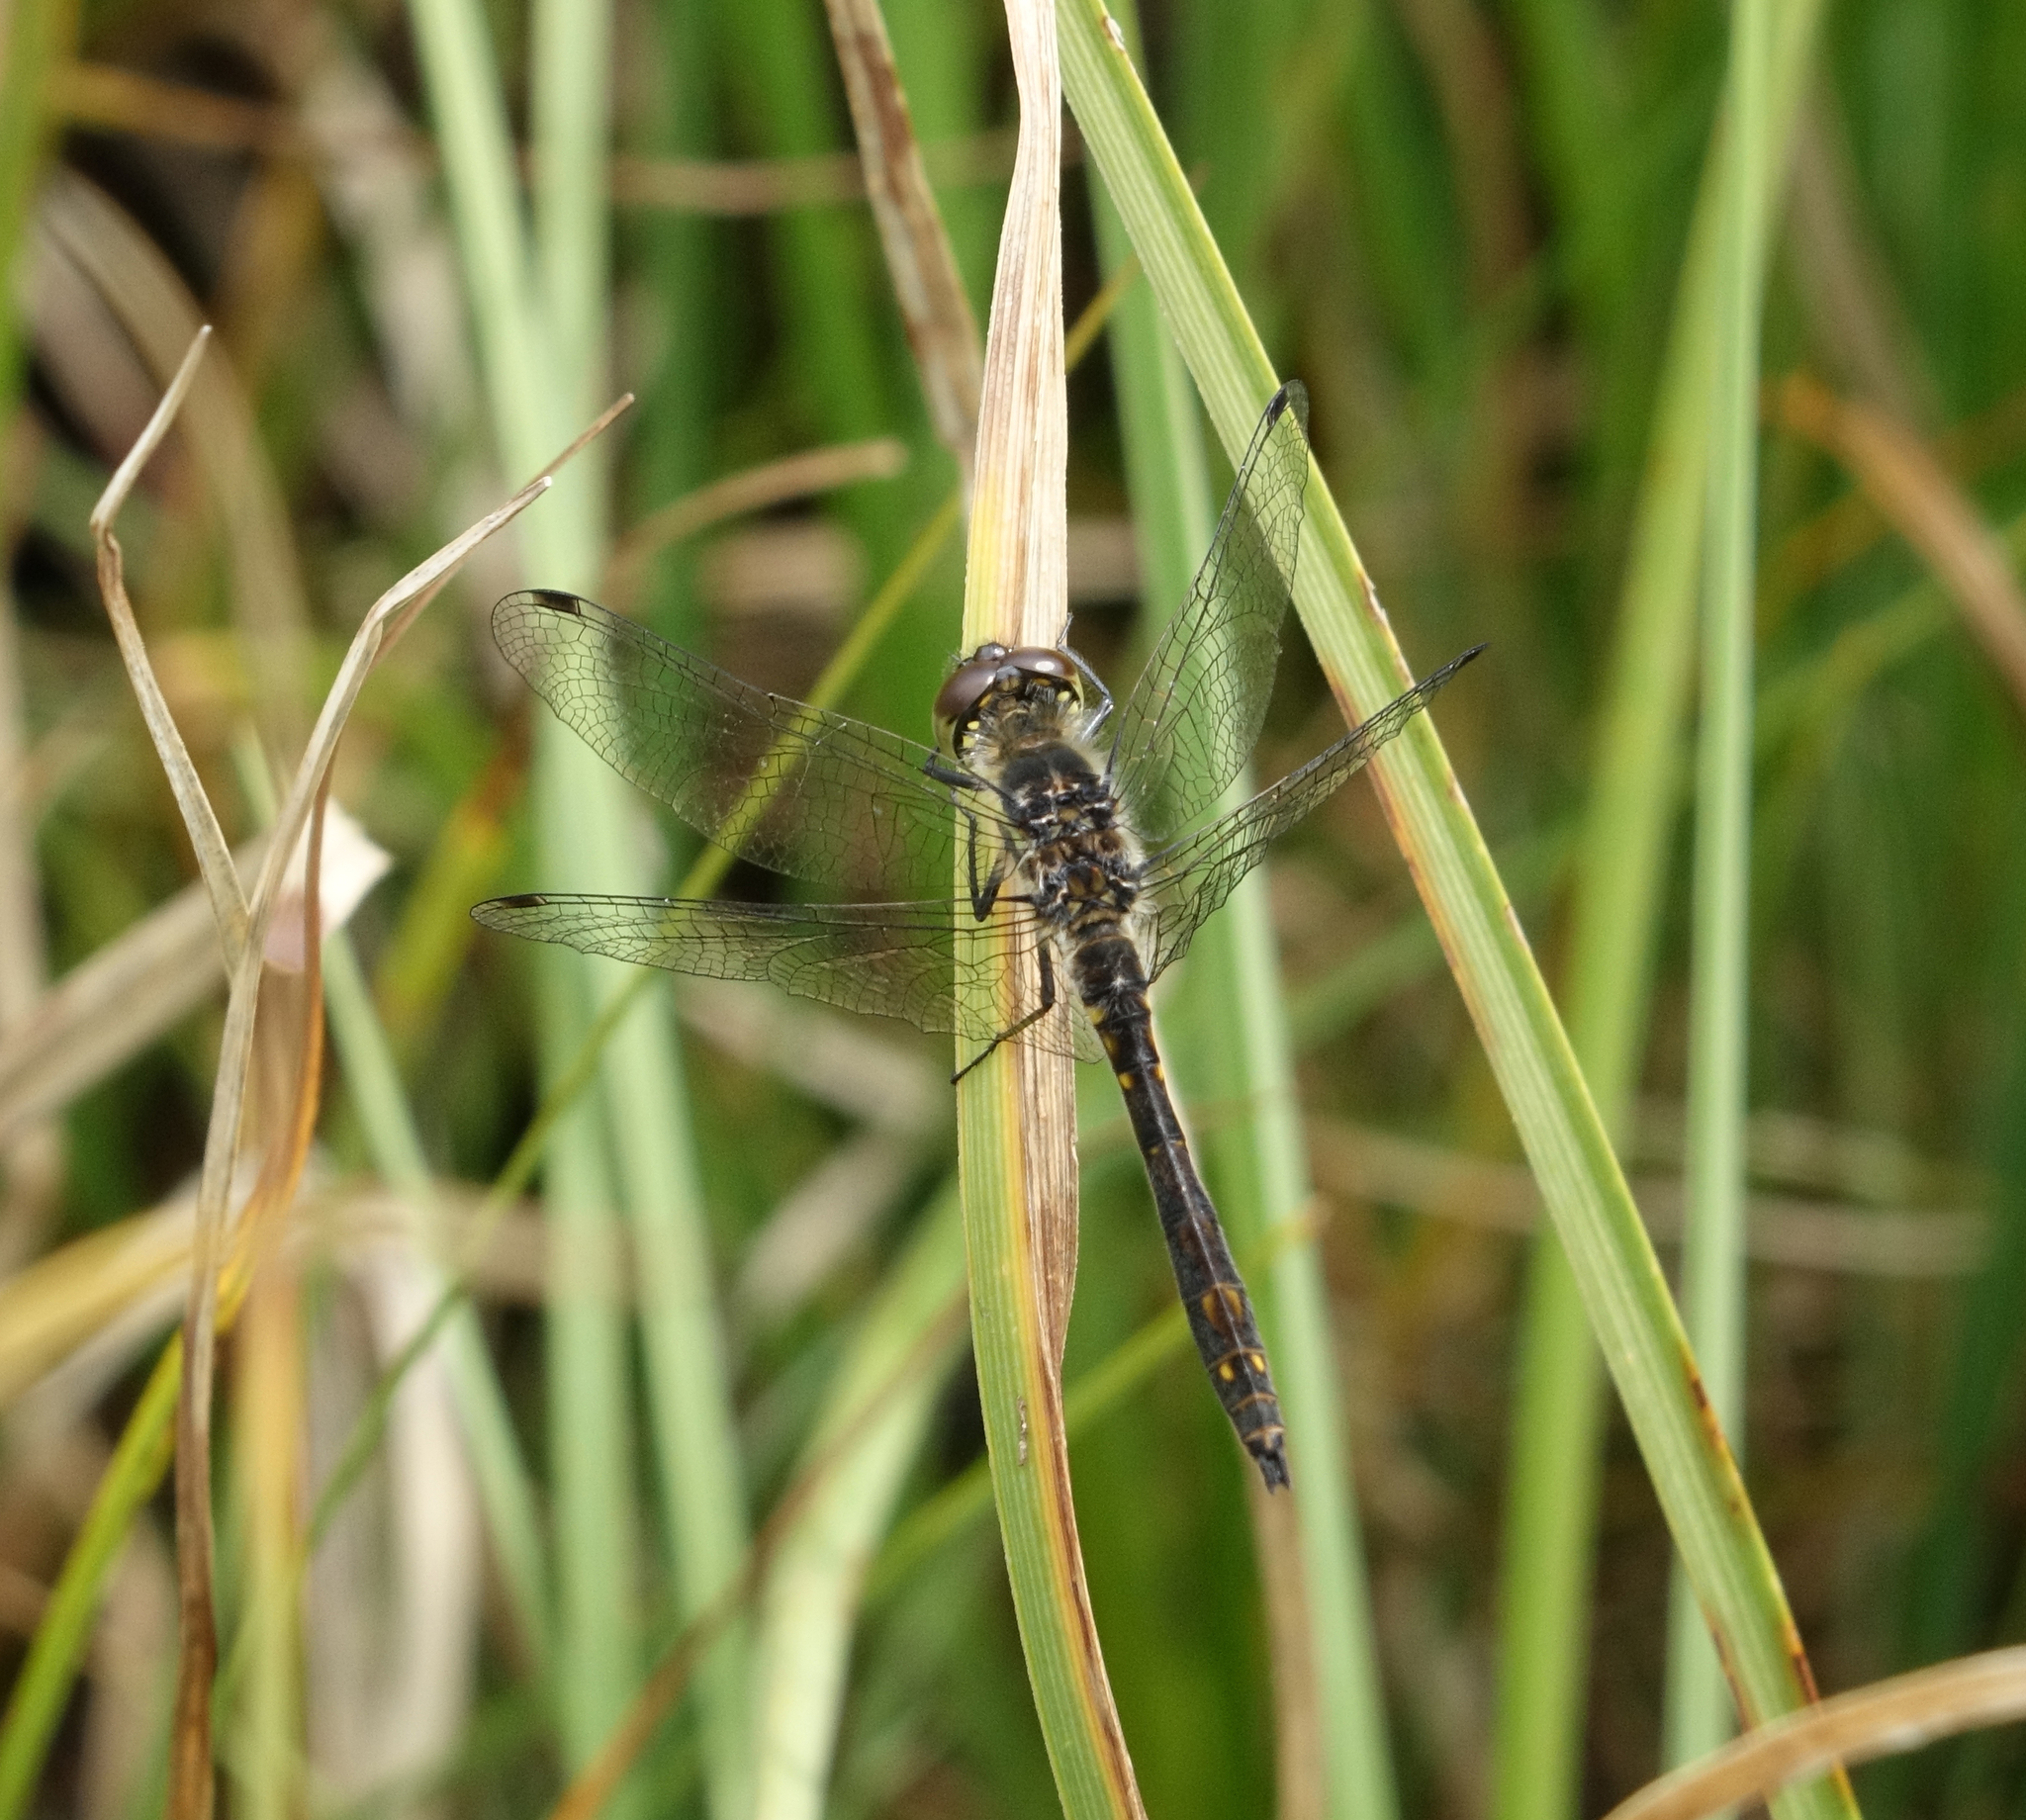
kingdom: Animalia
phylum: Arthropoda
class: Insecta
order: Odonata
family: Libellulidae
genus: Sympetrum
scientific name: Sympetrum danae
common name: Black darter
